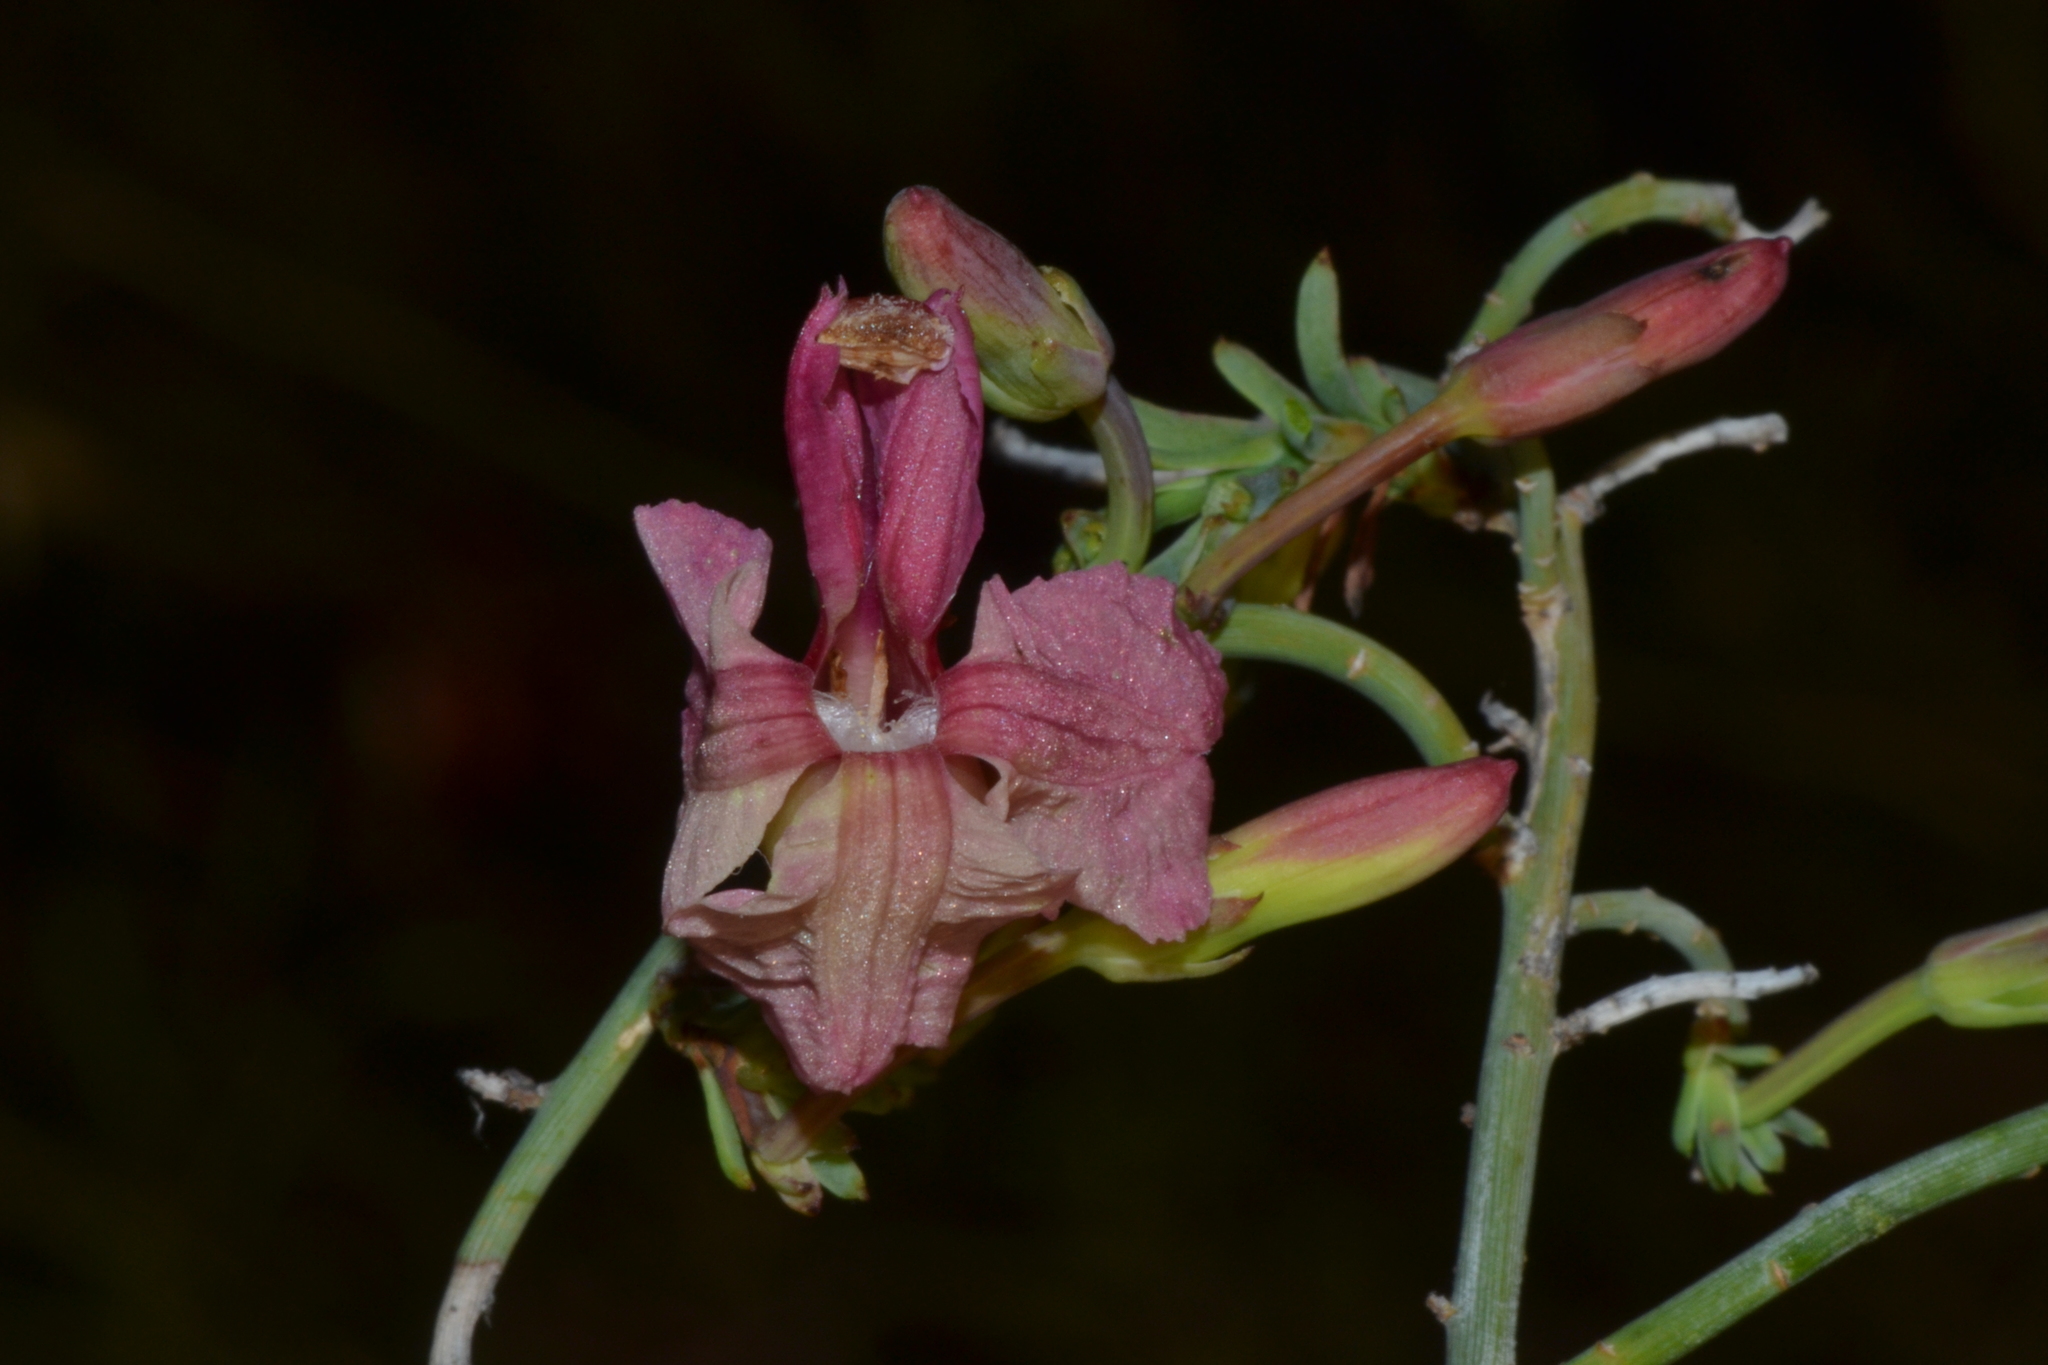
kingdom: Plantae
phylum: Tracheophyta
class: Magnoliopsida
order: Asterales
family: Goodeniaceae
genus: Lechenaultia
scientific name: Lechenaultia linarioides
